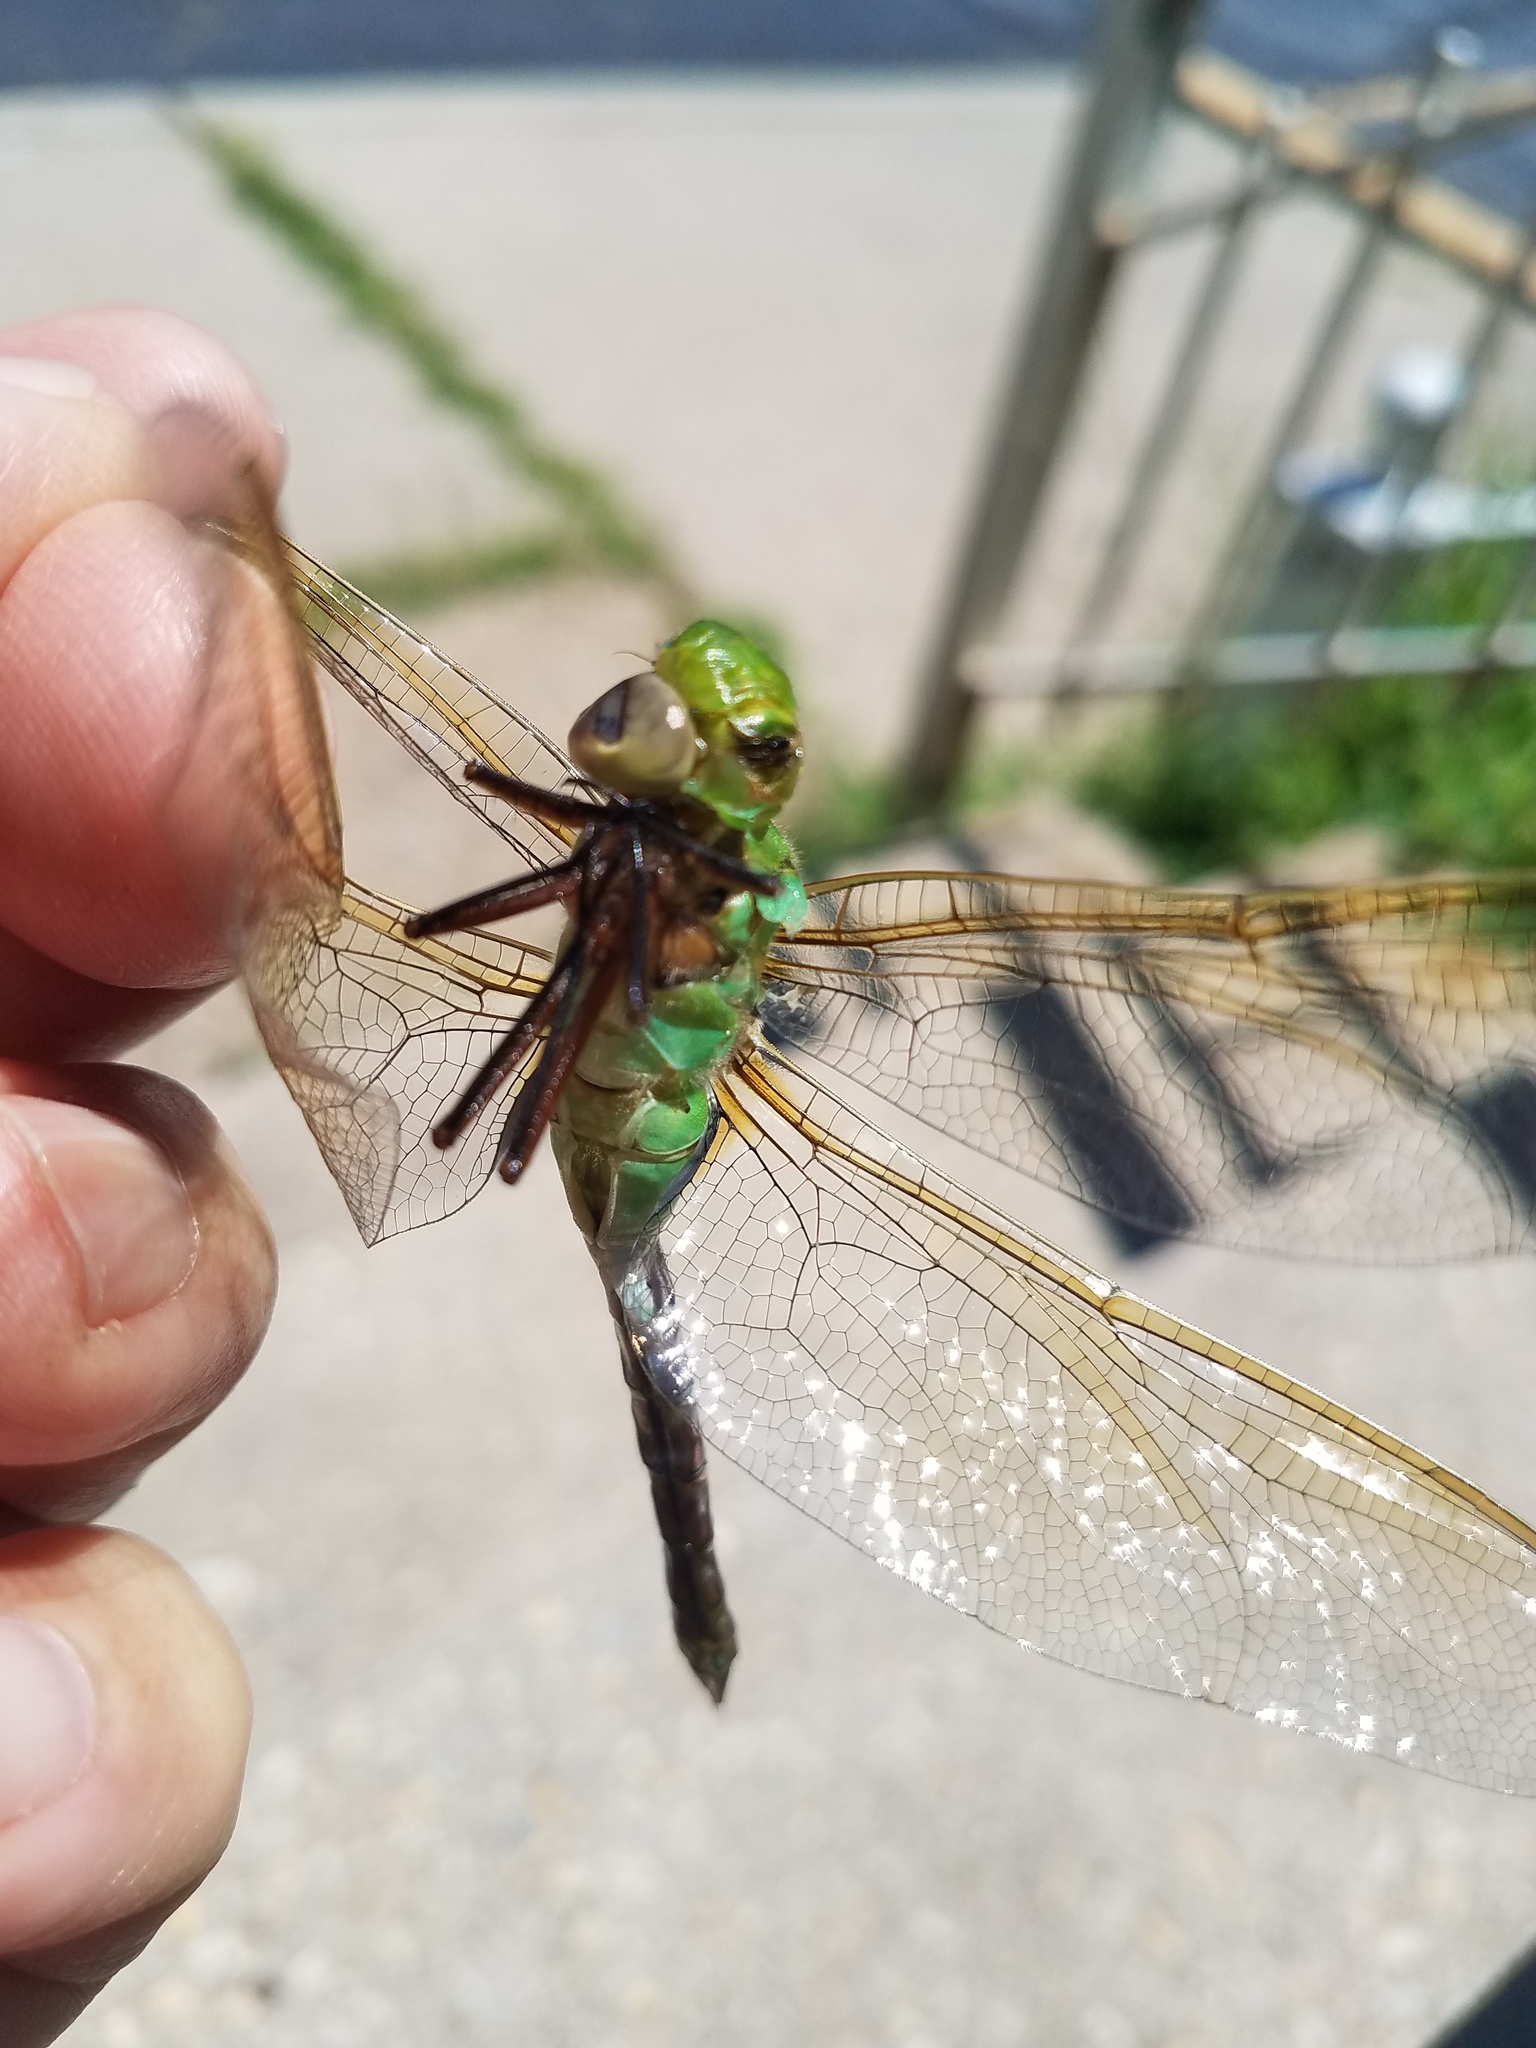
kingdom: Animalia
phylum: Arthropoda
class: Insecta
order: Odonata
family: Aeshnidae
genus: Anax
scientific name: Anax junius
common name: Common green darner
